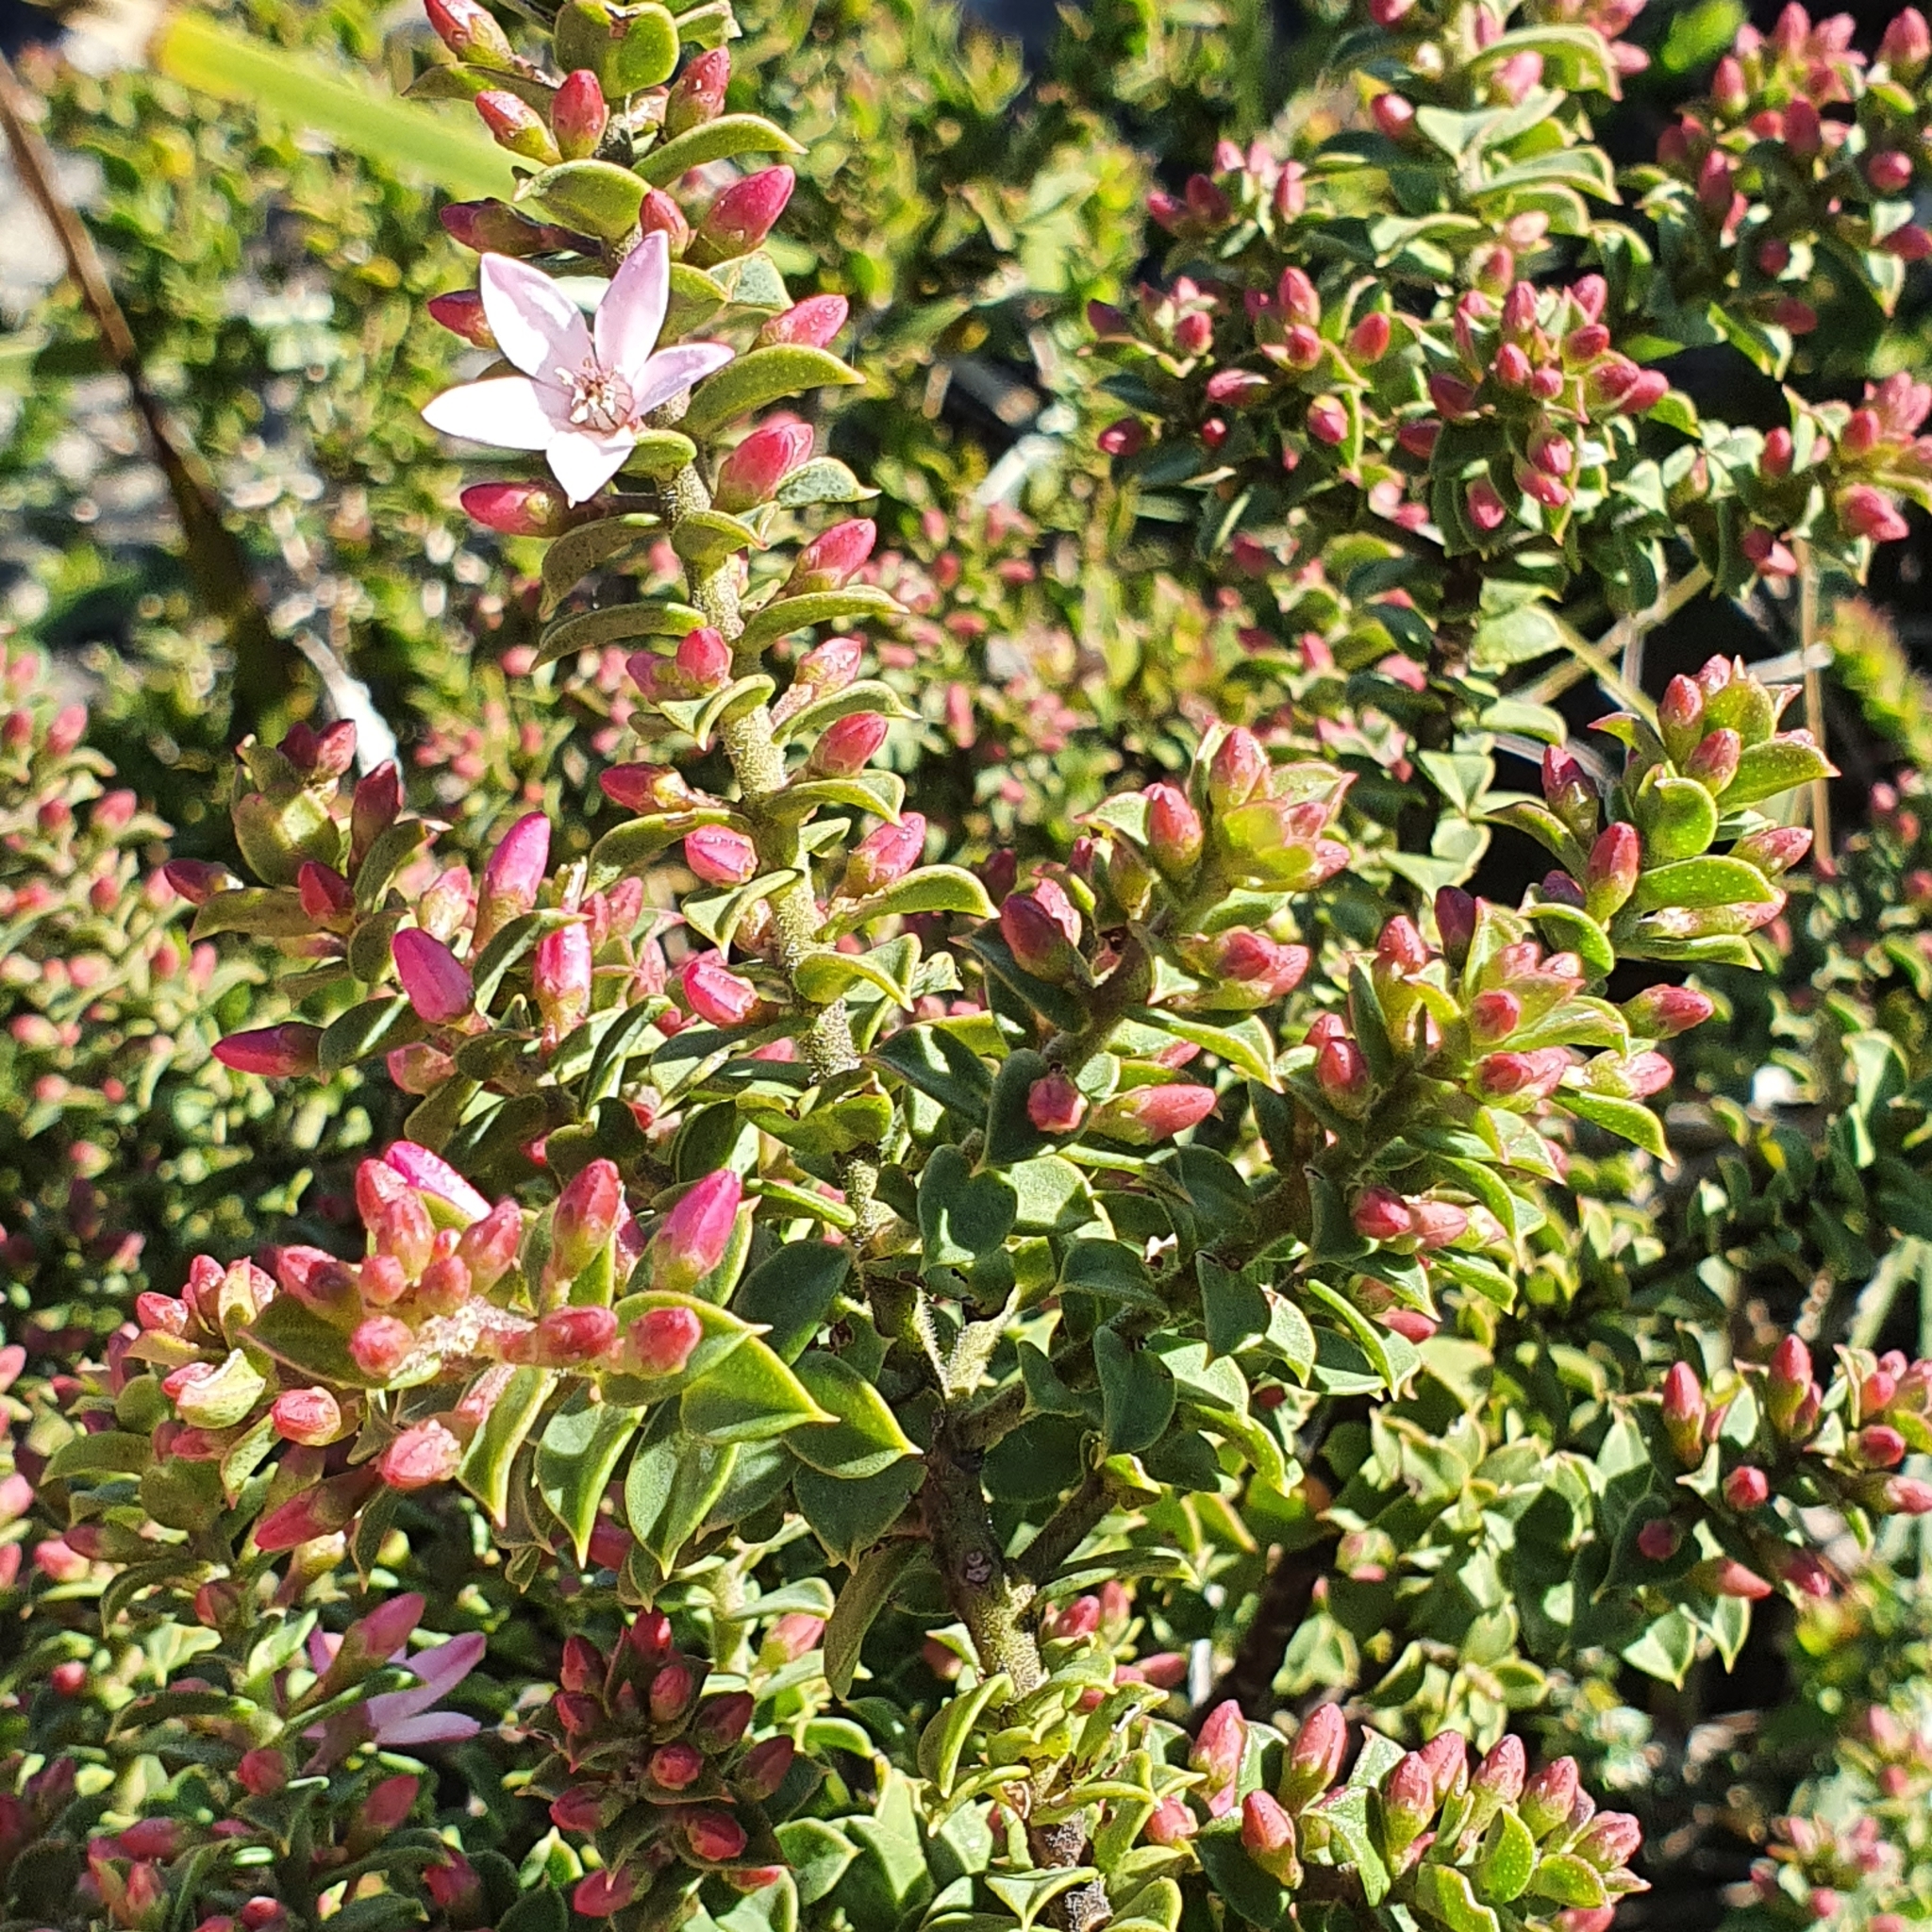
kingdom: Plantae
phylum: Tracheophyta
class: Magnoliopsida
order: Sapindales
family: Rutaceae
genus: Philotheca
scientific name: Philotheca buxifolia
